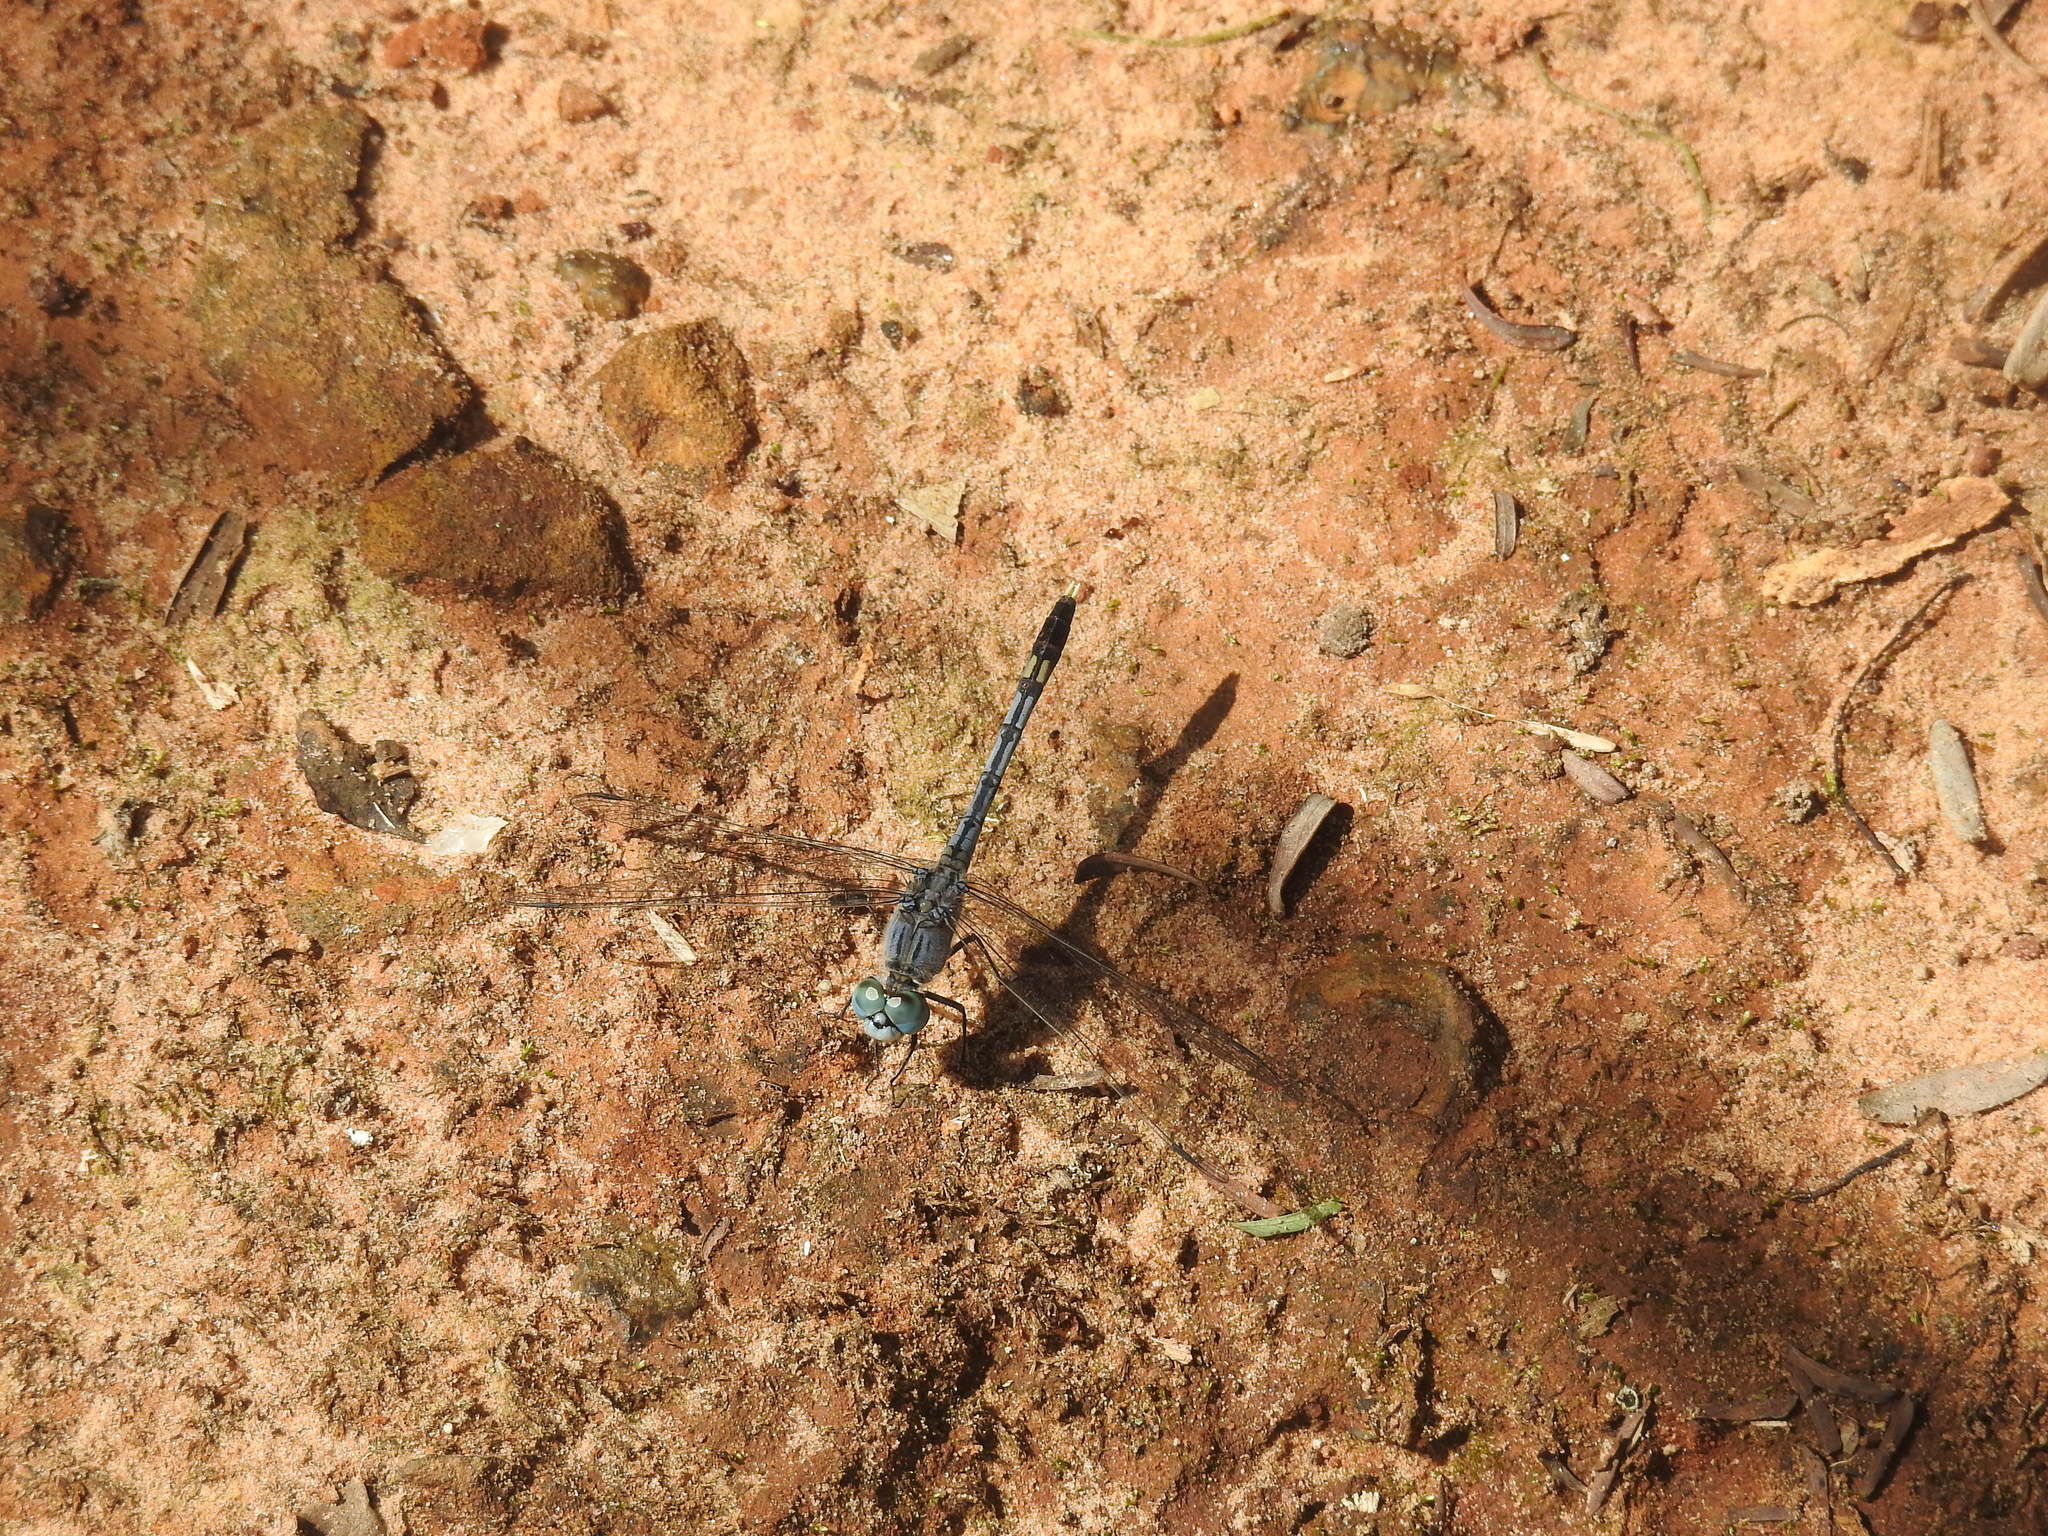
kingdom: Animalia
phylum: Arthropoda
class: Insecta
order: Odonata
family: Libellulidae
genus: Diplacodes
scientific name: Diplacodes trivialis
